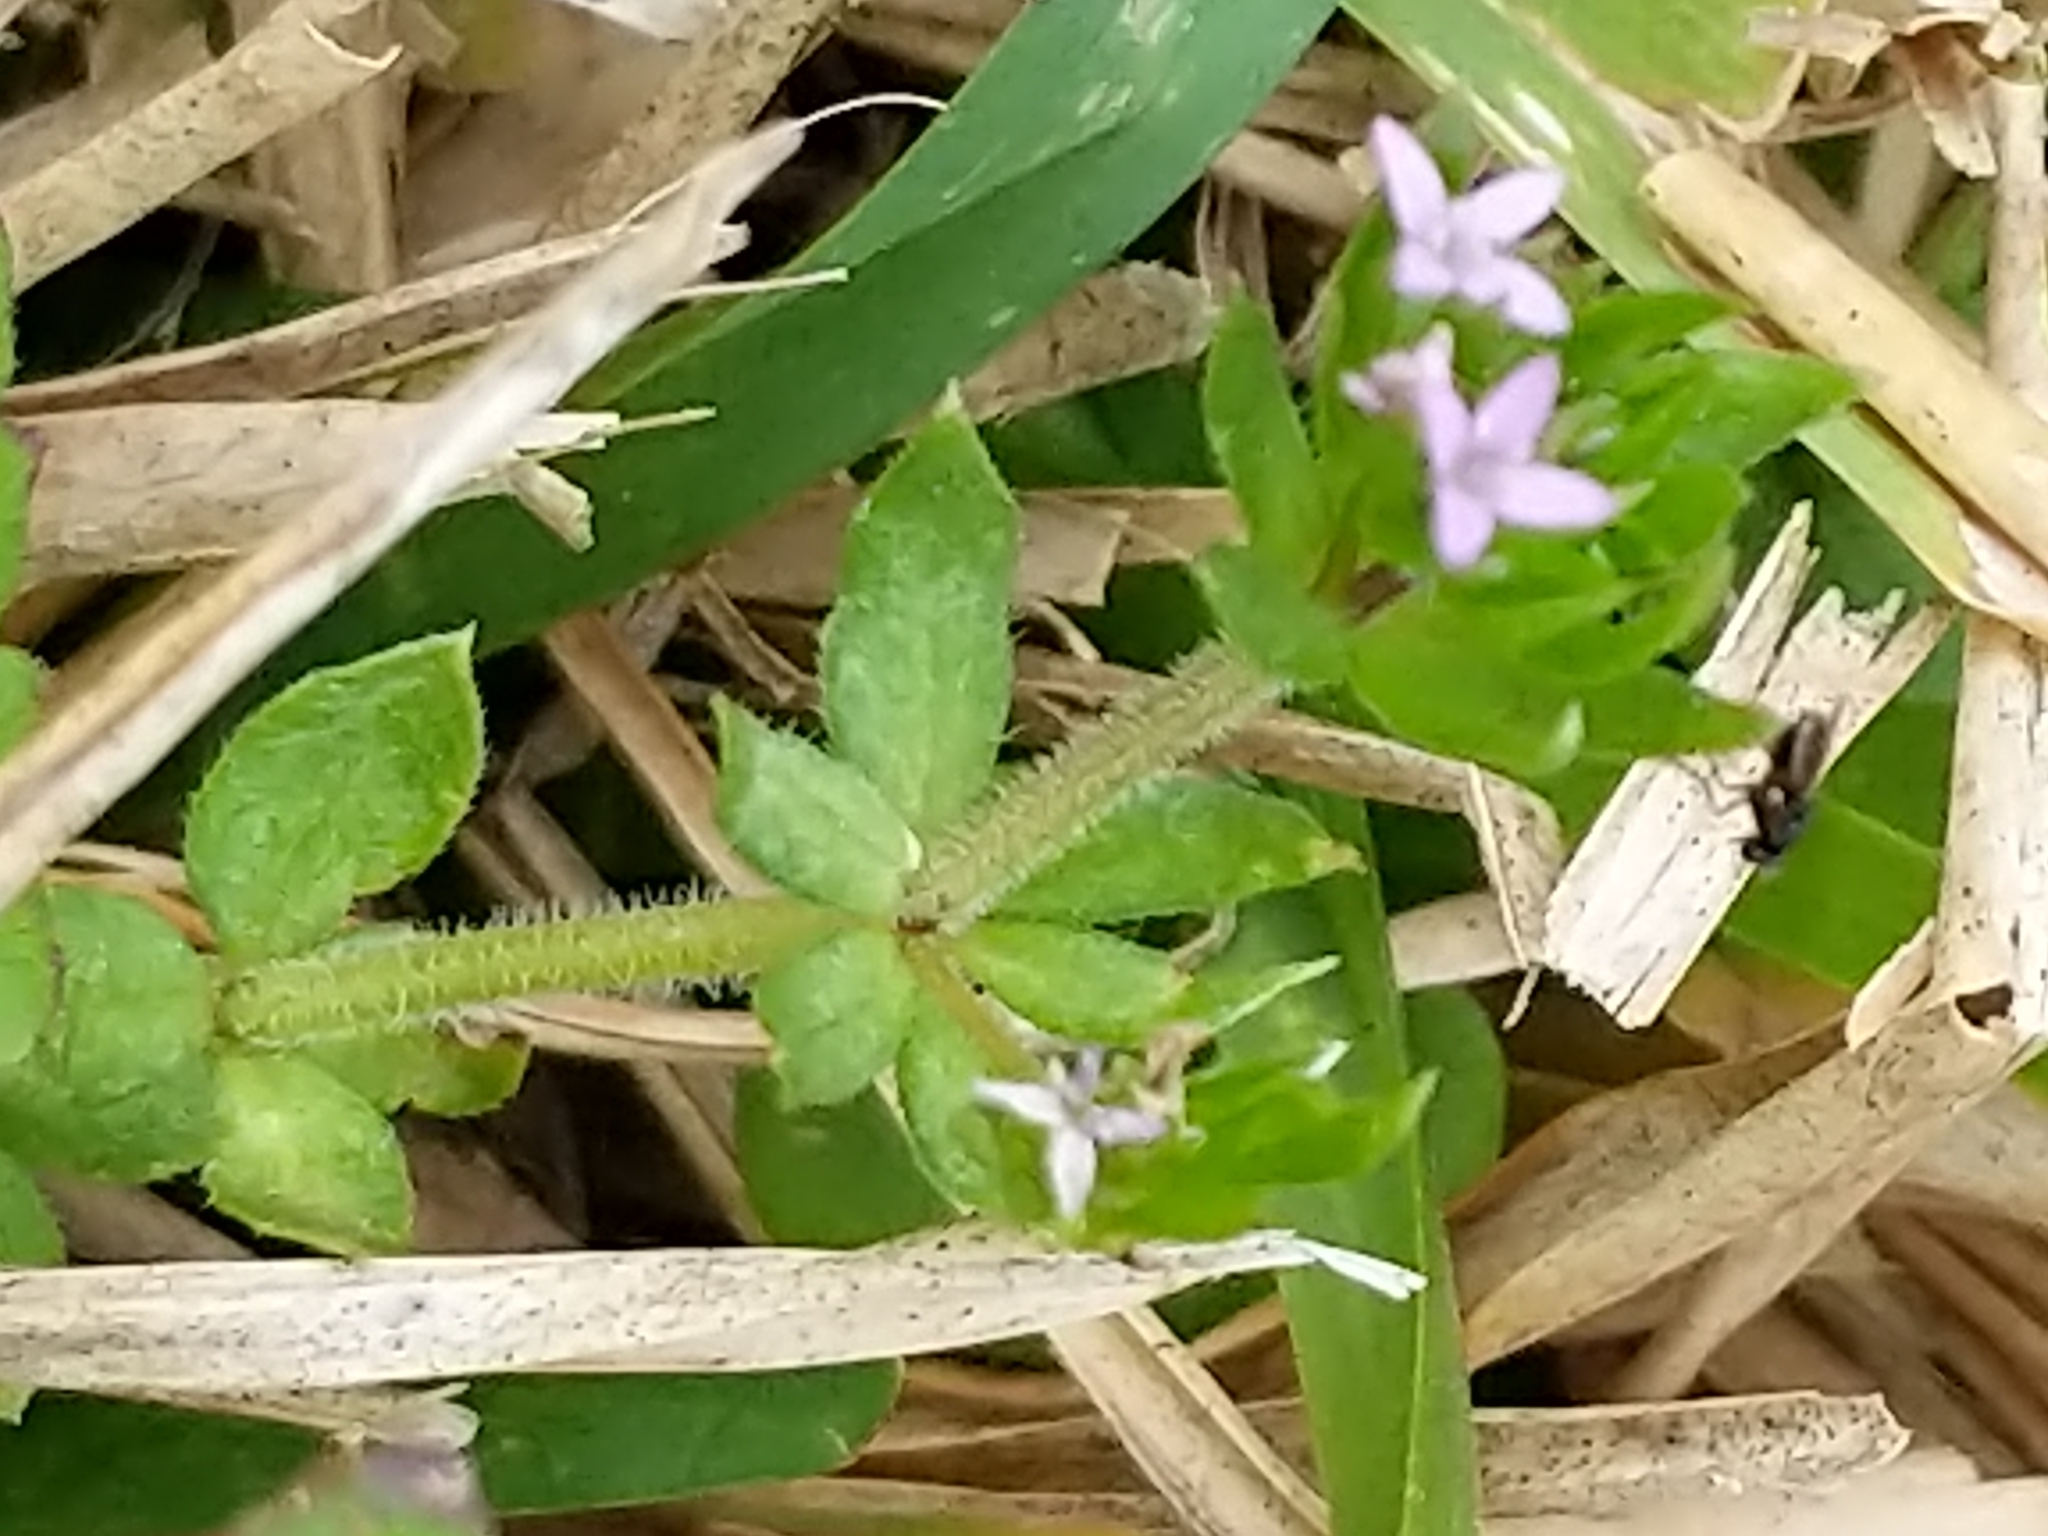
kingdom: Plantae
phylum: Tracheophyta
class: Magnoliopsida
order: Gentianales
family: Rubiaceae
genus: Sherardia
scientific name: Sherardia arvensis
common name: Field madder
